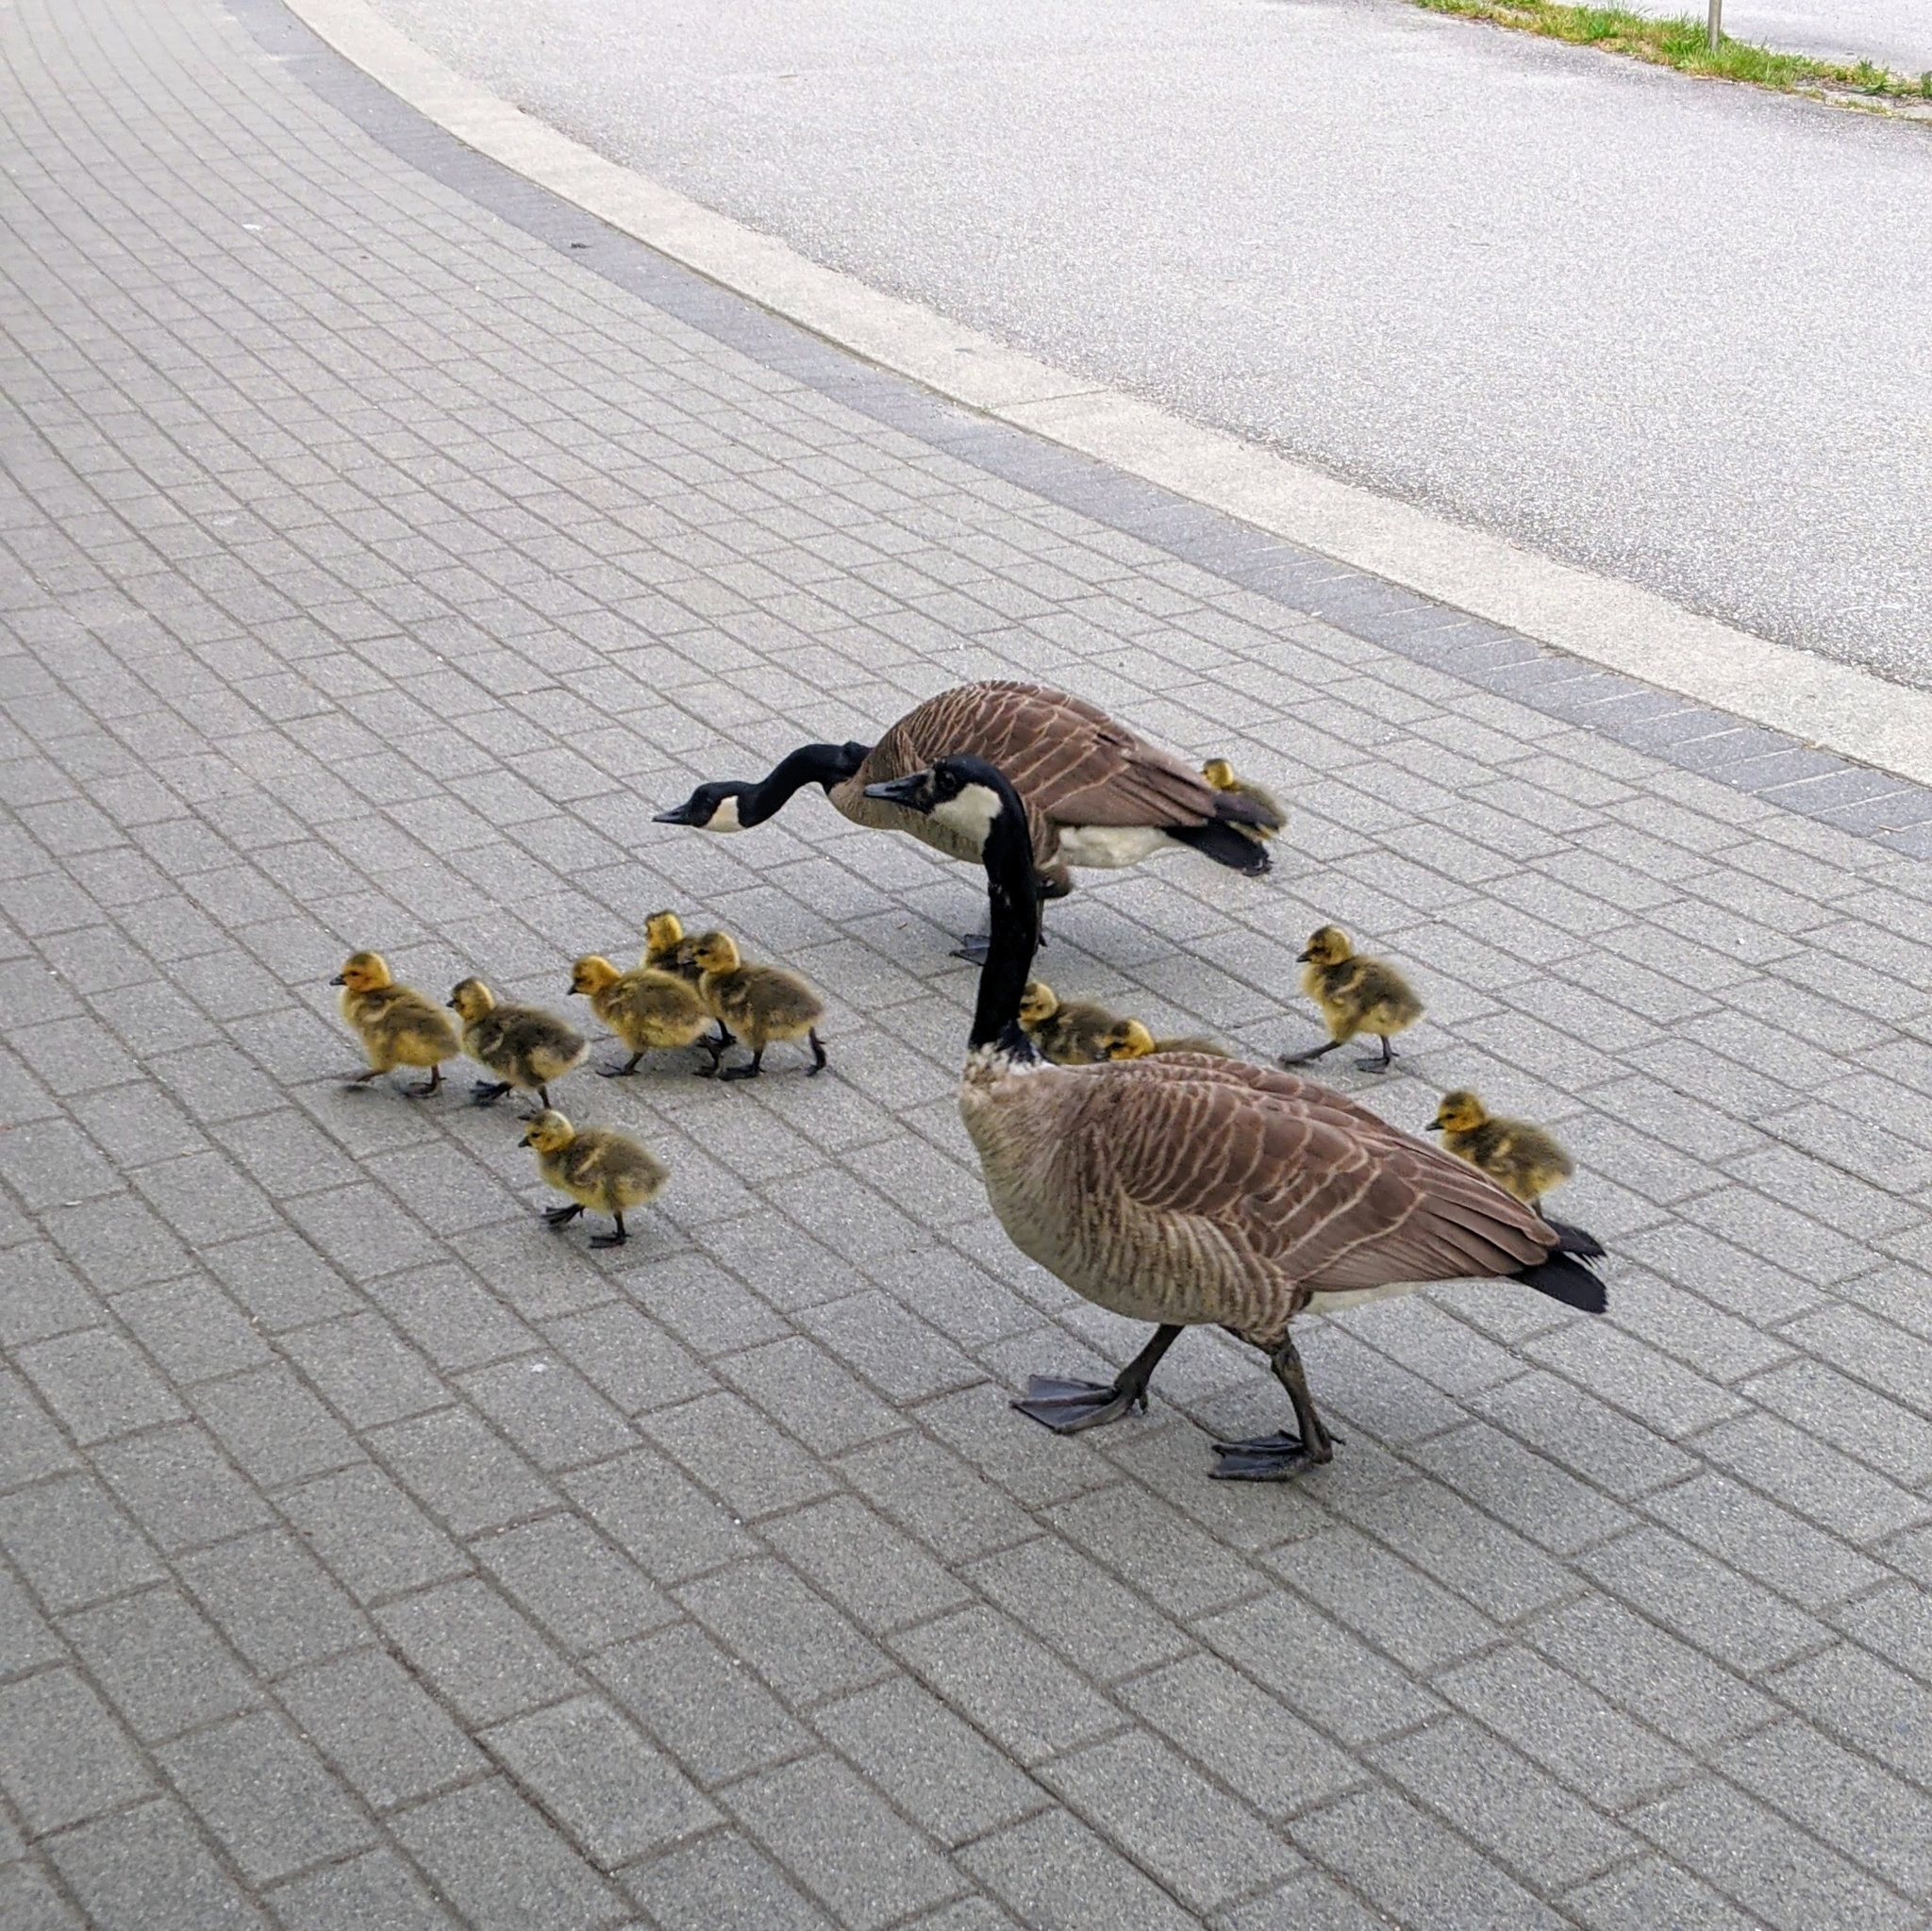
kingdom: Animalia
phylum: Chordata
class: Aves
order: Anseriformes
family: Anatidae
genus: Branta
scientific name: Branta canadensis
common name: Canada goose
